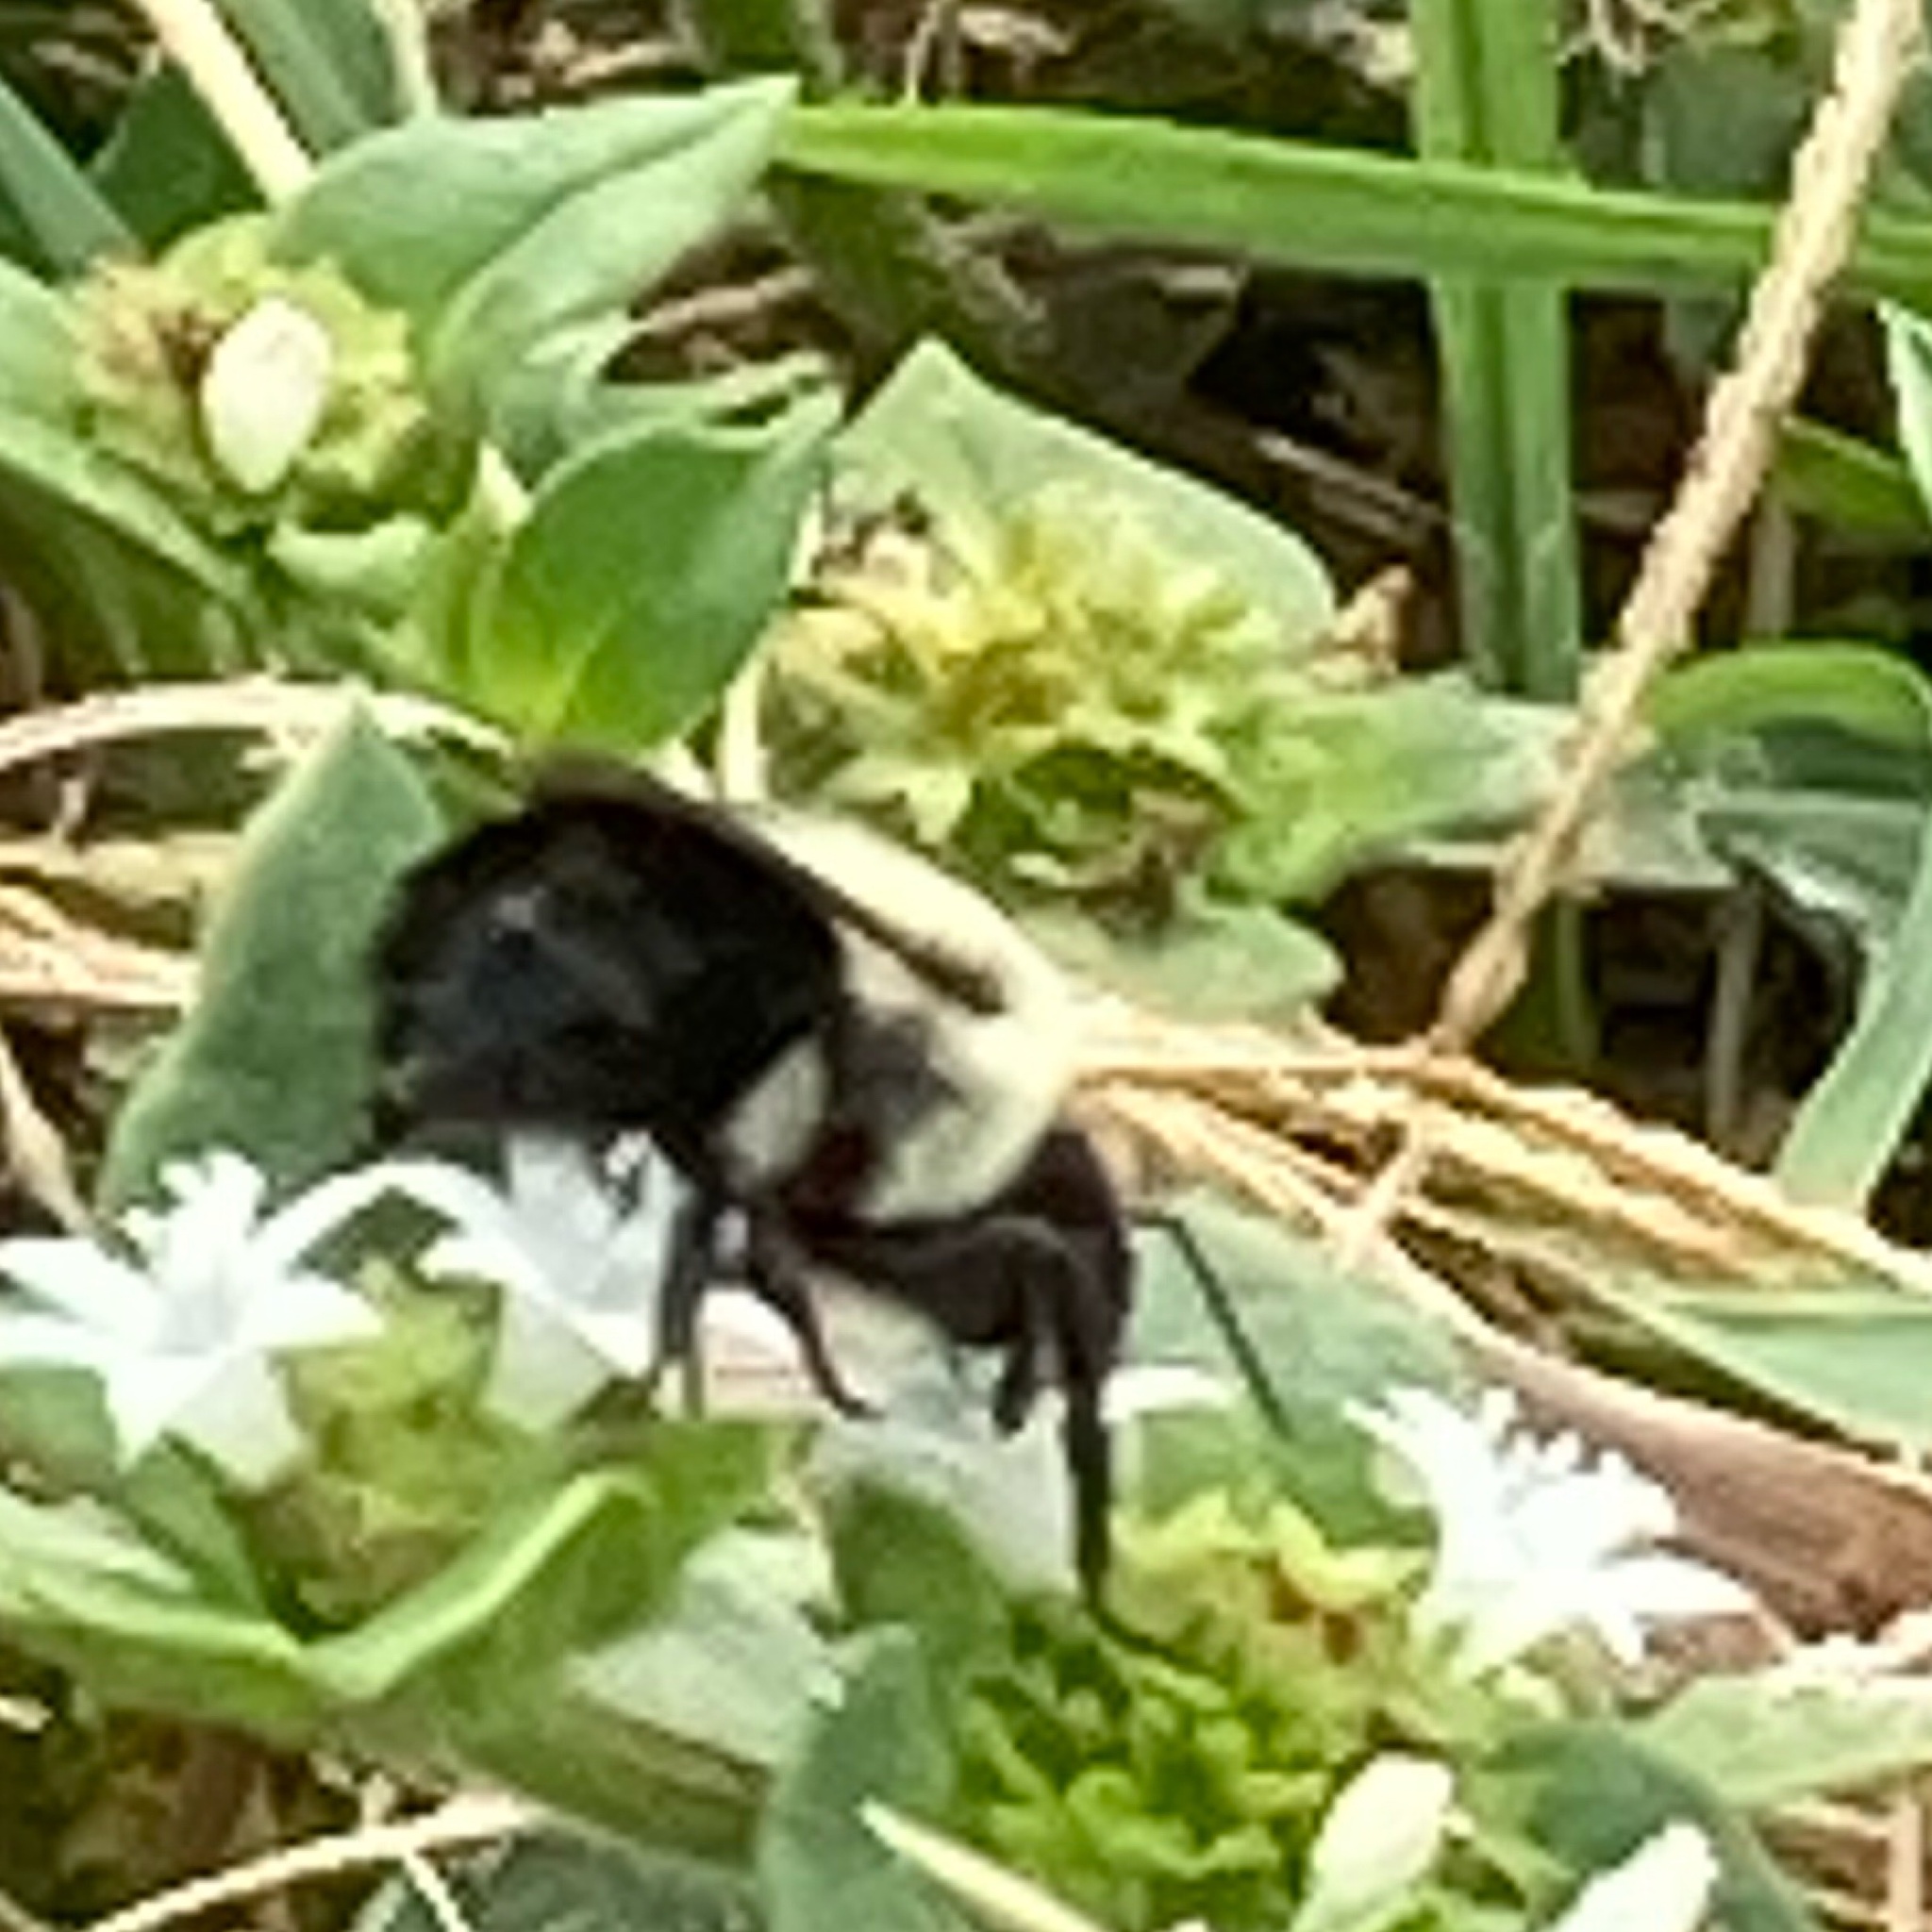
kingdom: Animalia
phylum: Arthropoda
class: Insecta
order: Hymenoptera
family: Apidae
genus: Bombus
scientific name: Bombus impatiens
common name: Common eastern bumble bee
